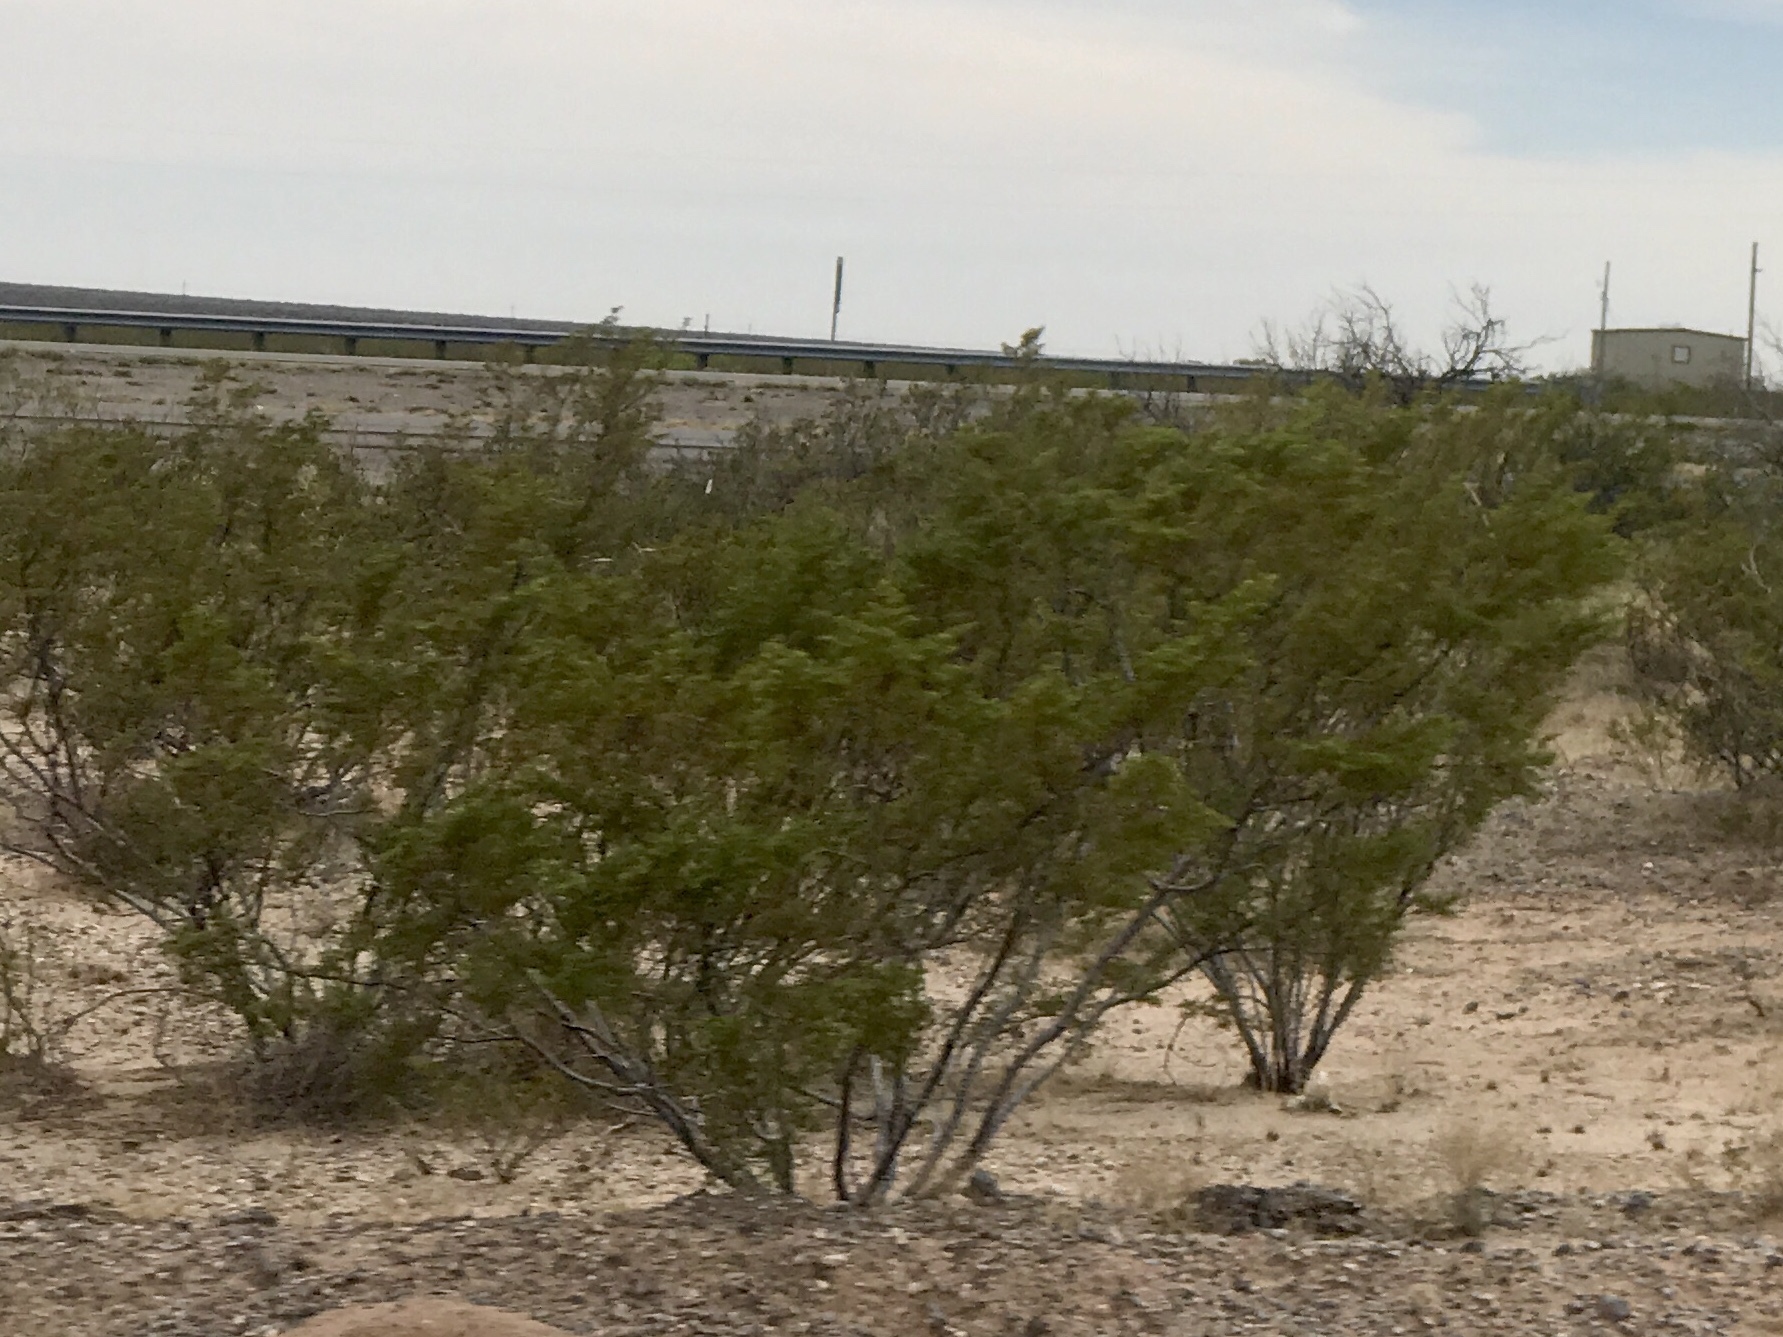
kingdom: Plantae
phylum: Tracheophyta
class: Magnoliopsida
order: Zygophyllales
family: Zygophyllaceae
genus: Larrea
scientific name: Larrea tridentata
